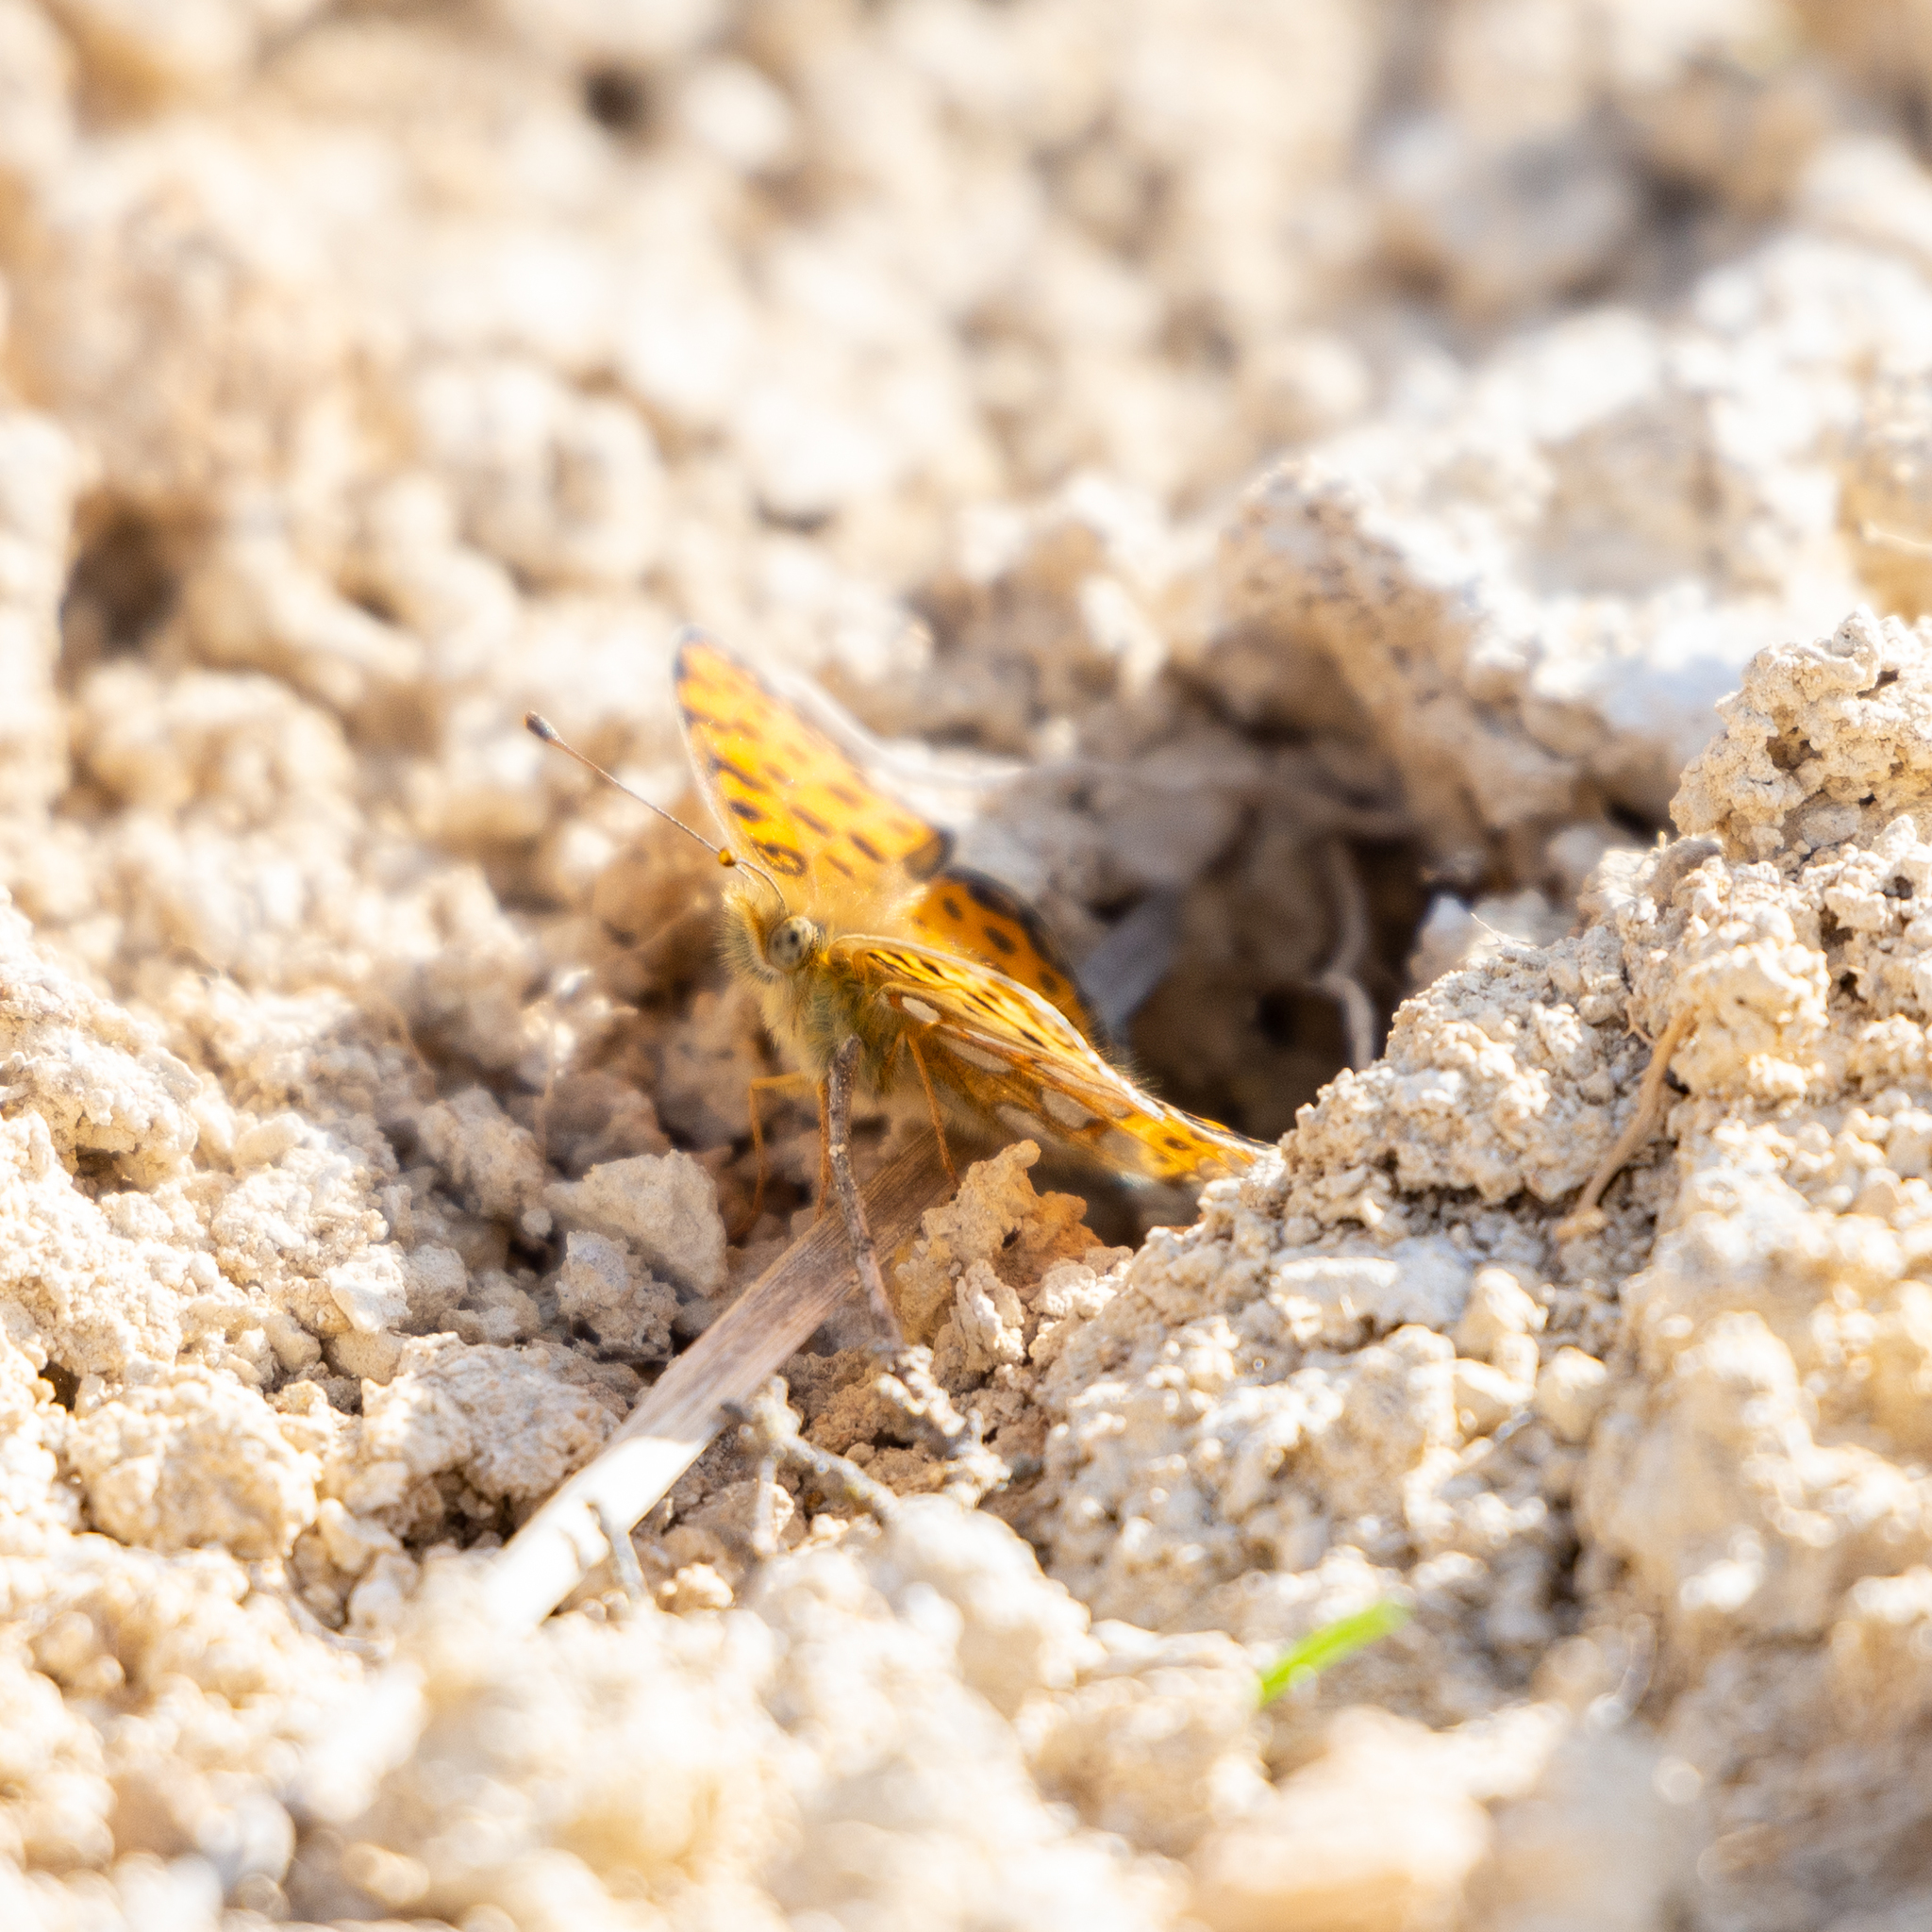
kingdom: Animalia
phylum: Arthropoda
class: Insecta
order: Lepidoptera
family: Nymphalidae
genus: Issoria
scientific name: Issoria lathonia
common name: Queen of spain fritillary
